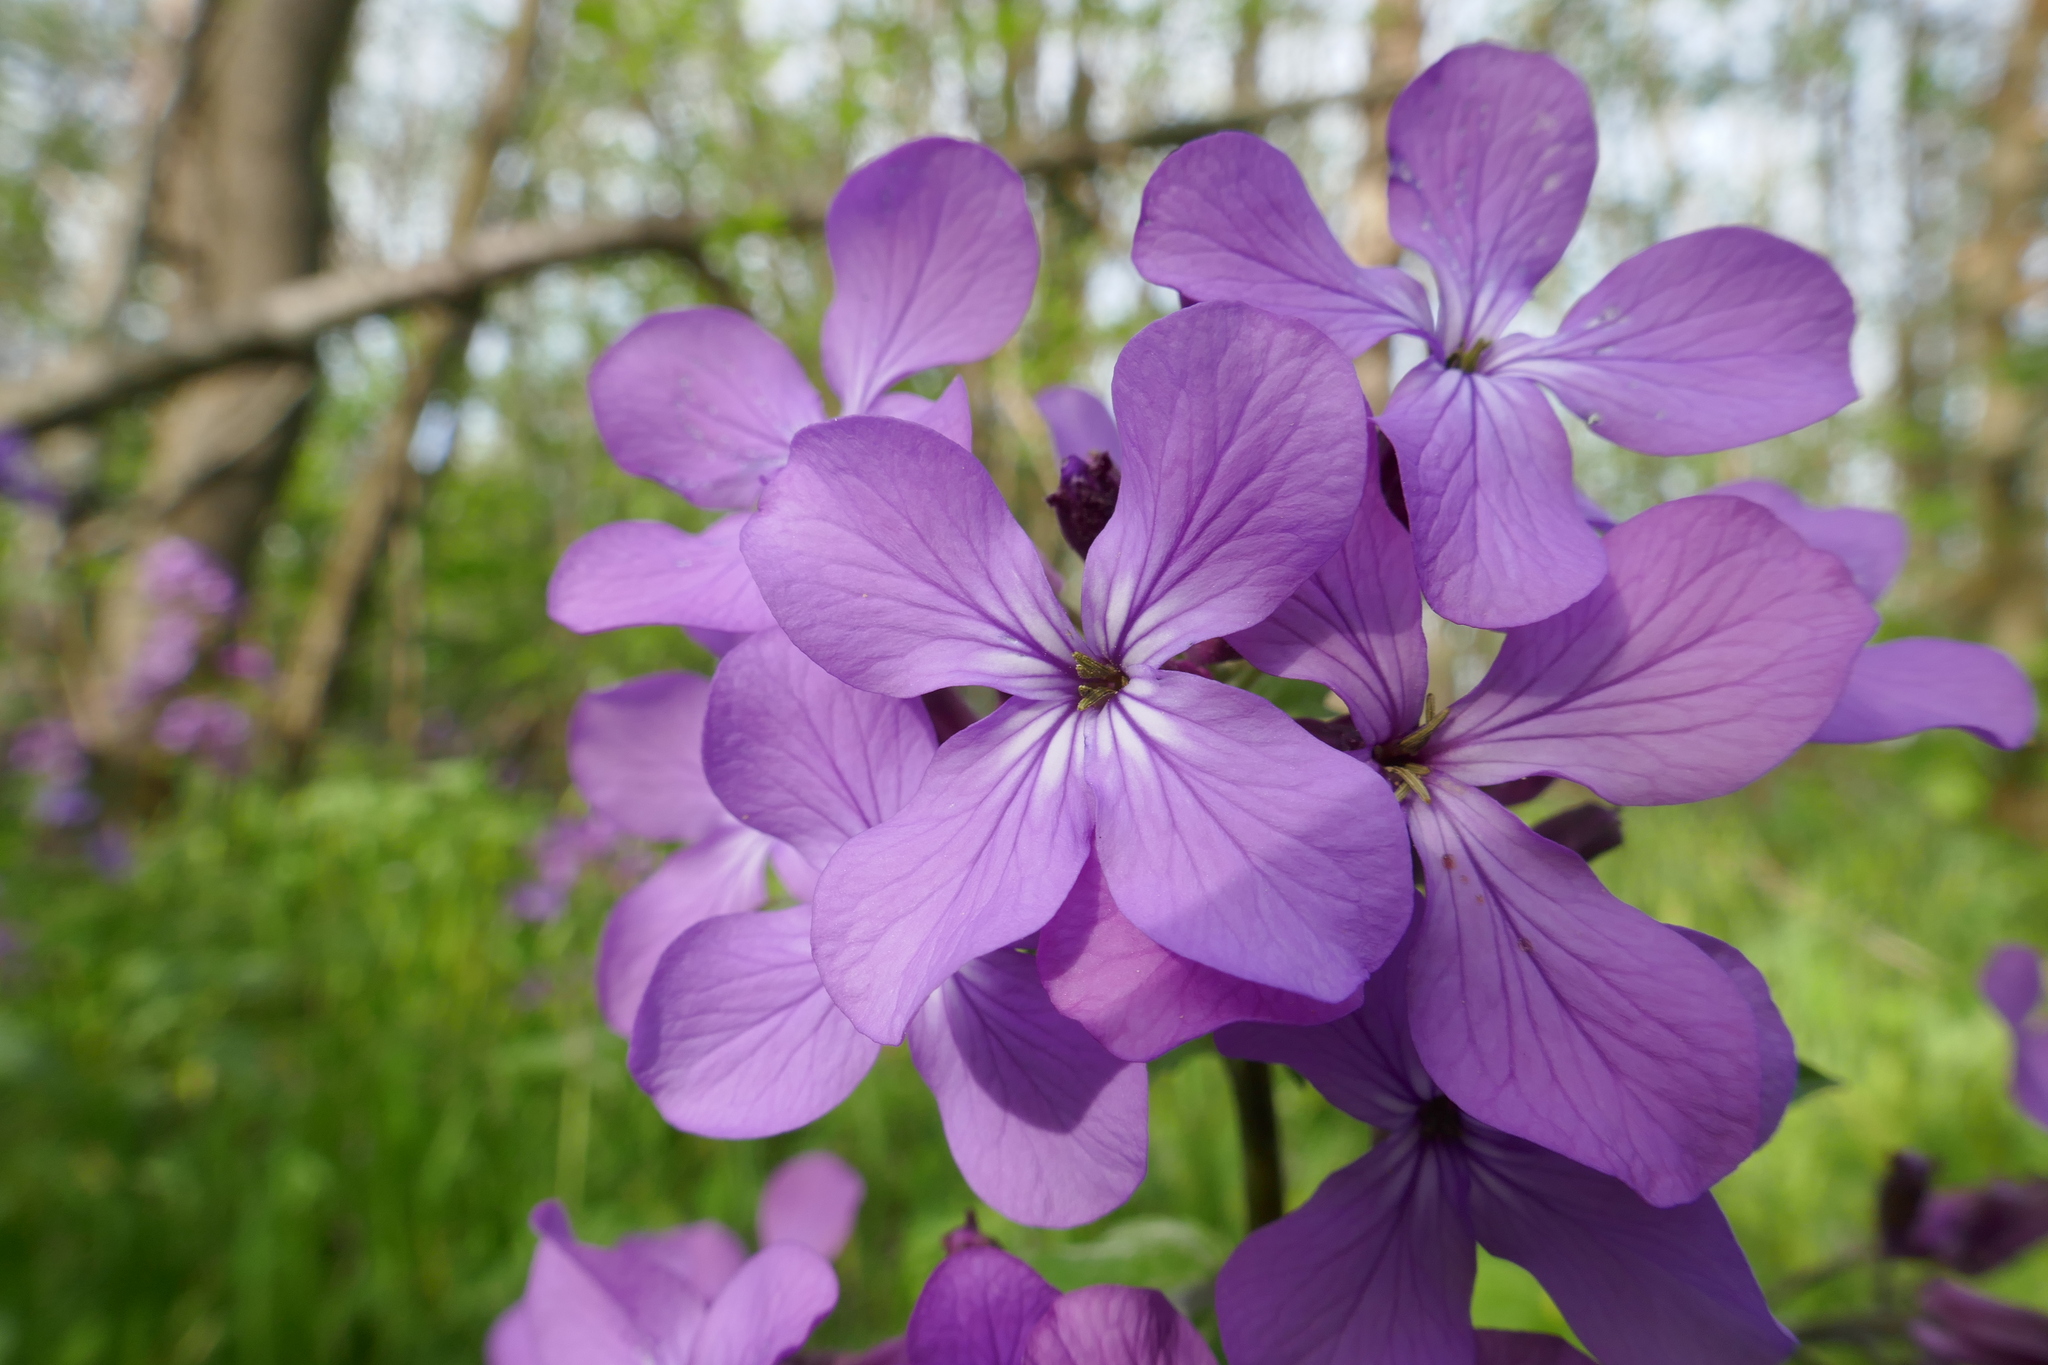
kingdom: Plantae
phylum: Tracheophyta
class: Magnoliopsida
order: Brassicales
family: Brassicaceae
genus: Lunaria
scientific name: Lunaria annua
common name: Honesty
